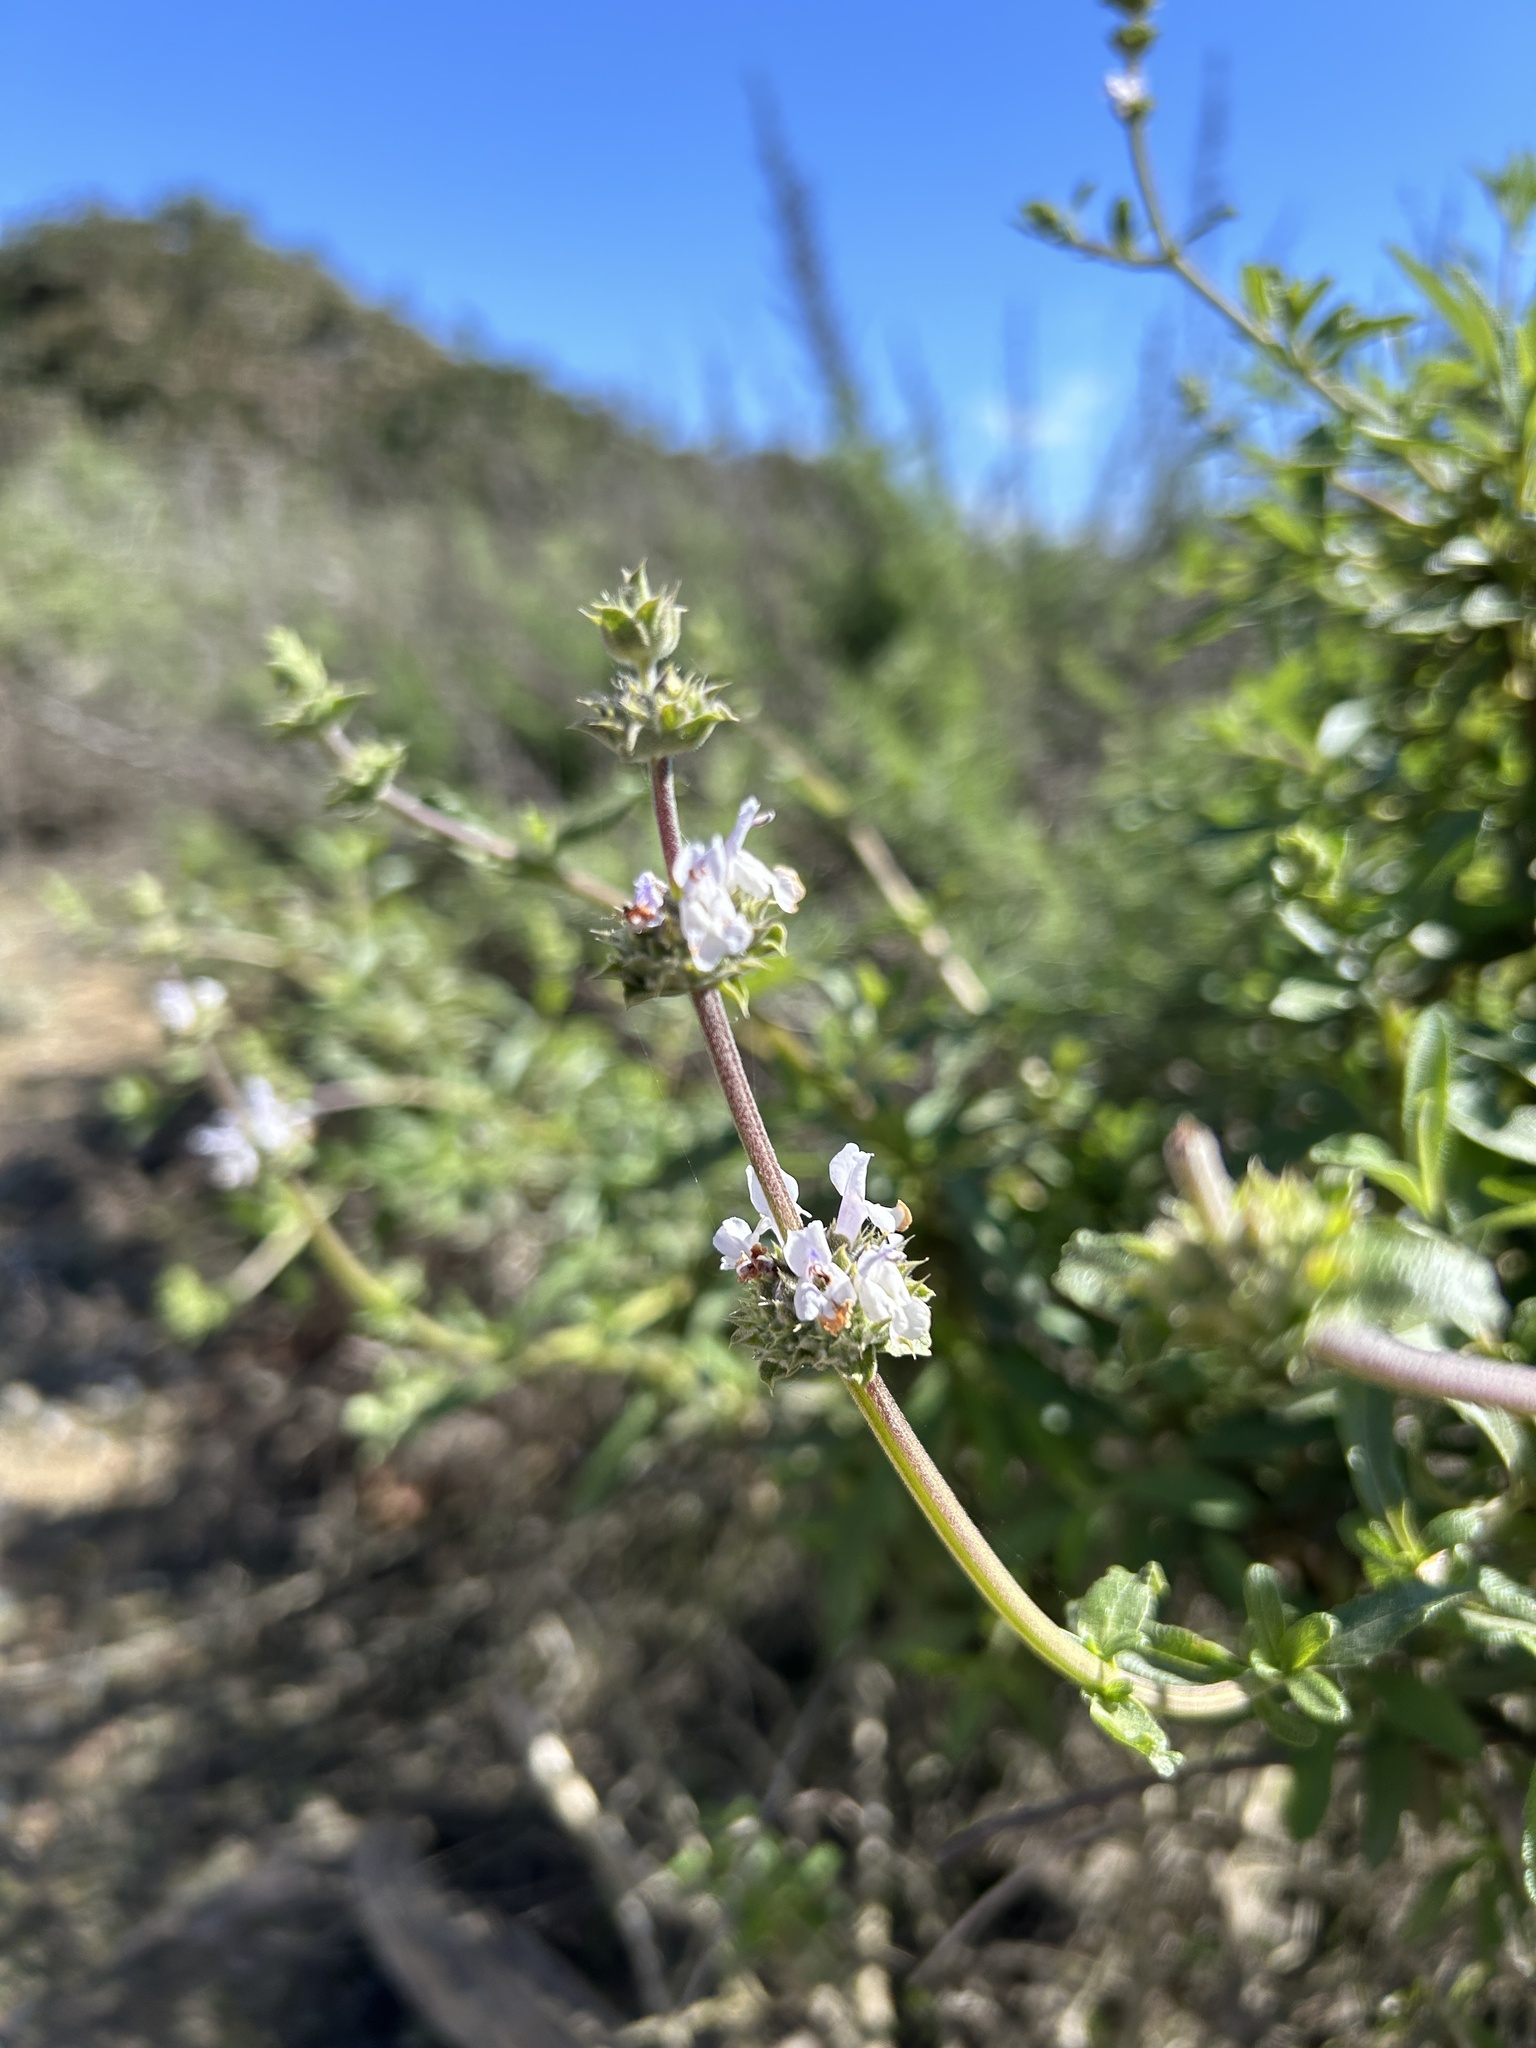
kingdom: Plantae
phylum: Tracheophyta
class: Magnoliopsida
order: Lamiales
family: Lamiaceae
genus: Salvia
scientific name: Salvia mellifera
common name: Black sage
